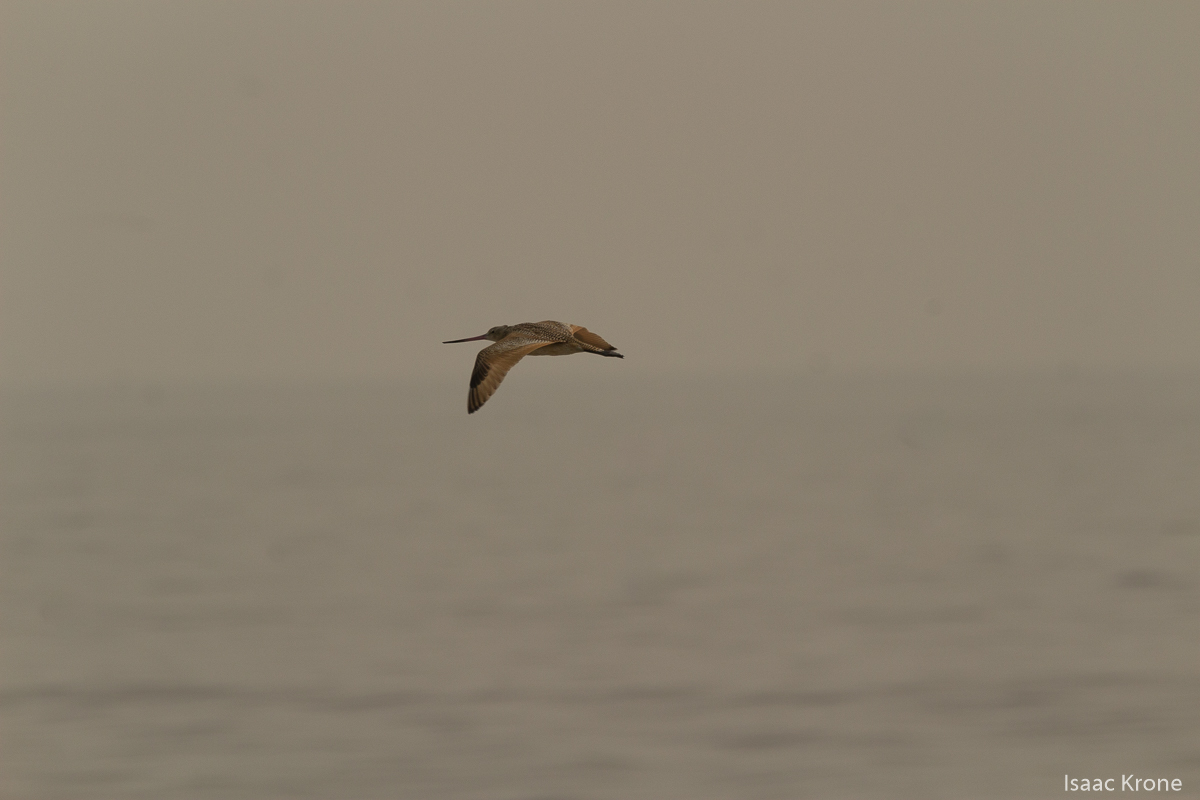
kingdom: Animalia
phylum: Chordata
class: Aves
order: Charadriiformes
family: Scolopacidae
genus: Limosa
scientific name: Limosa fedoa
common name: Marbled godwit
